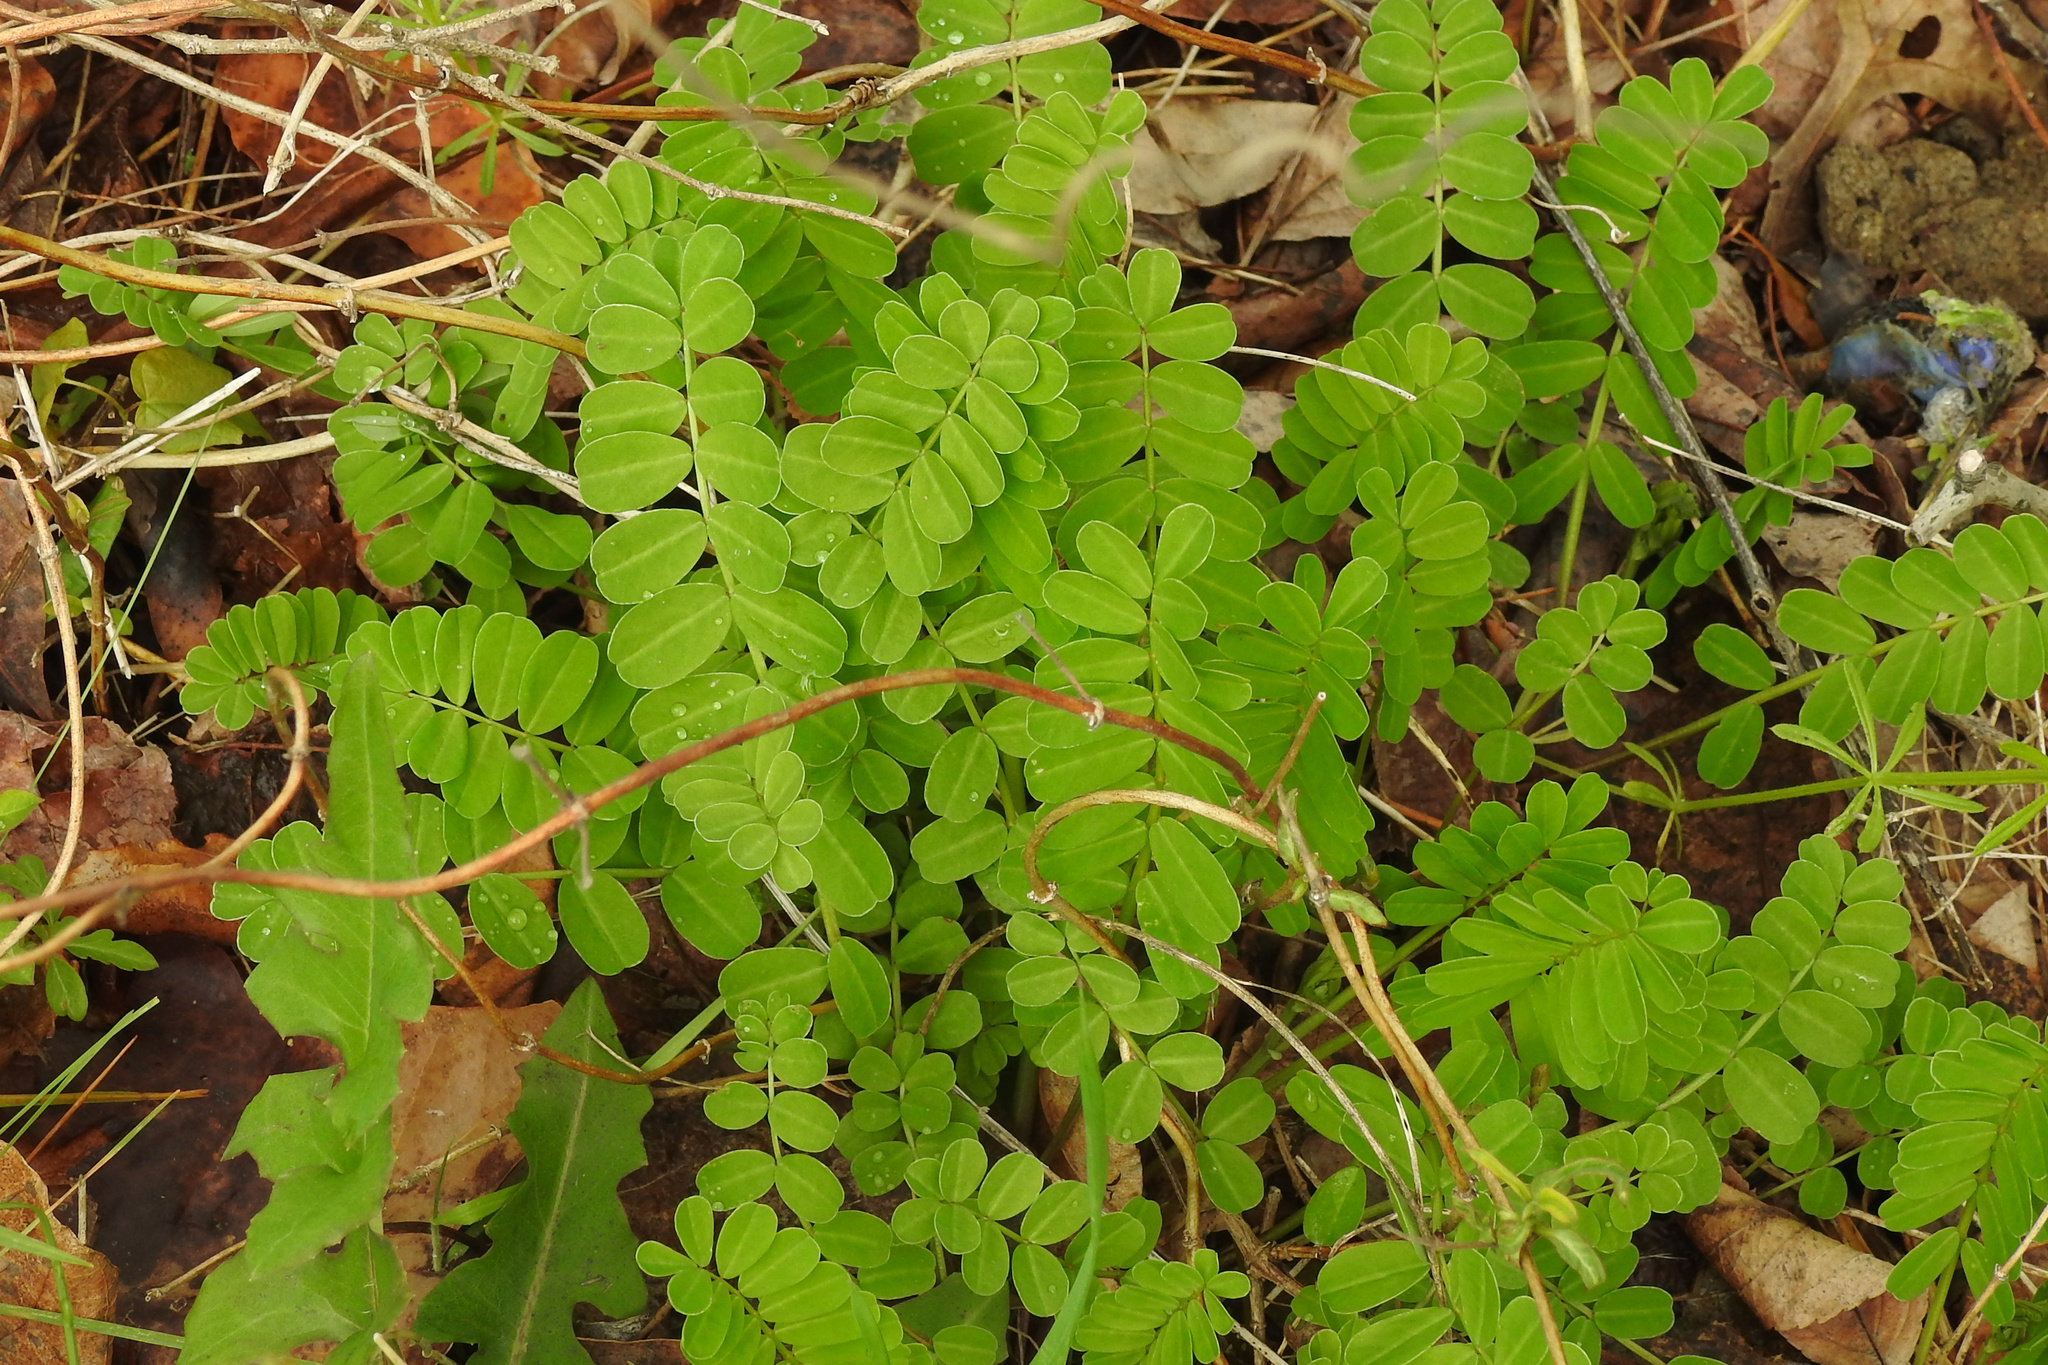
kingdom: Plantae
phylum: Tracheophyta
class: Magnoliopsida
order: Fabales
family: Fabaceae
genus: Coronilla
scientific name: Coronilla varia
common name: Crownvetch
